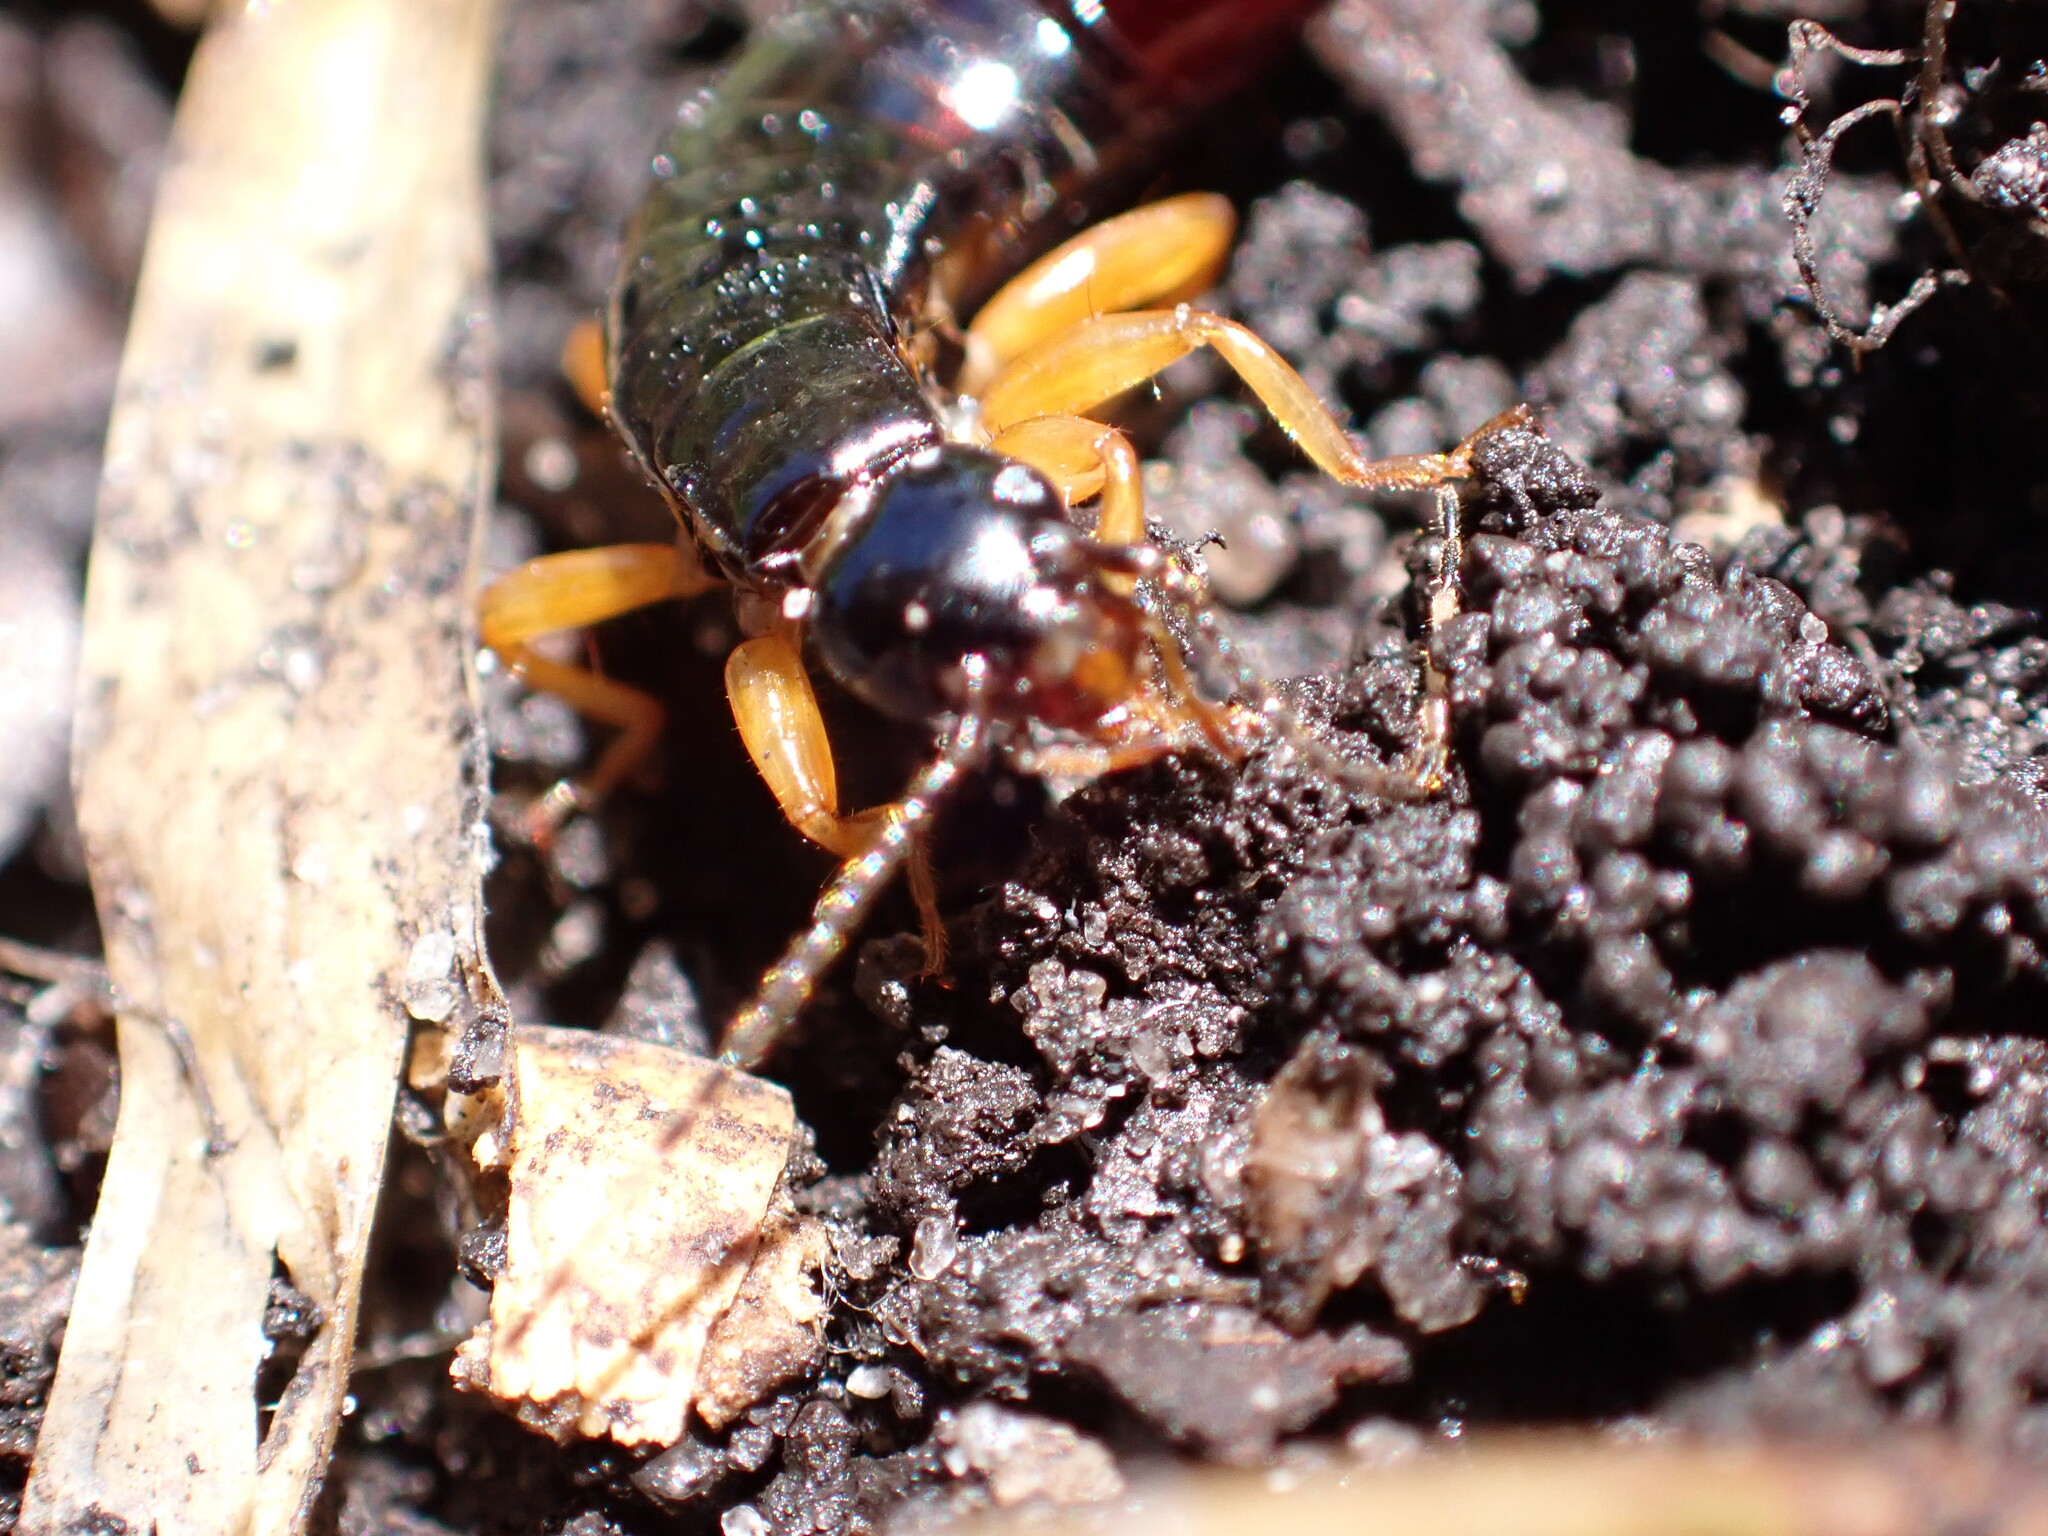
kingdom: Animalia
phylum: Arthropoda
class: Insecta
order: Dermaptera
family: Anisolabididae
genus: Euborellia
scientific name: Euborellia arcanum
